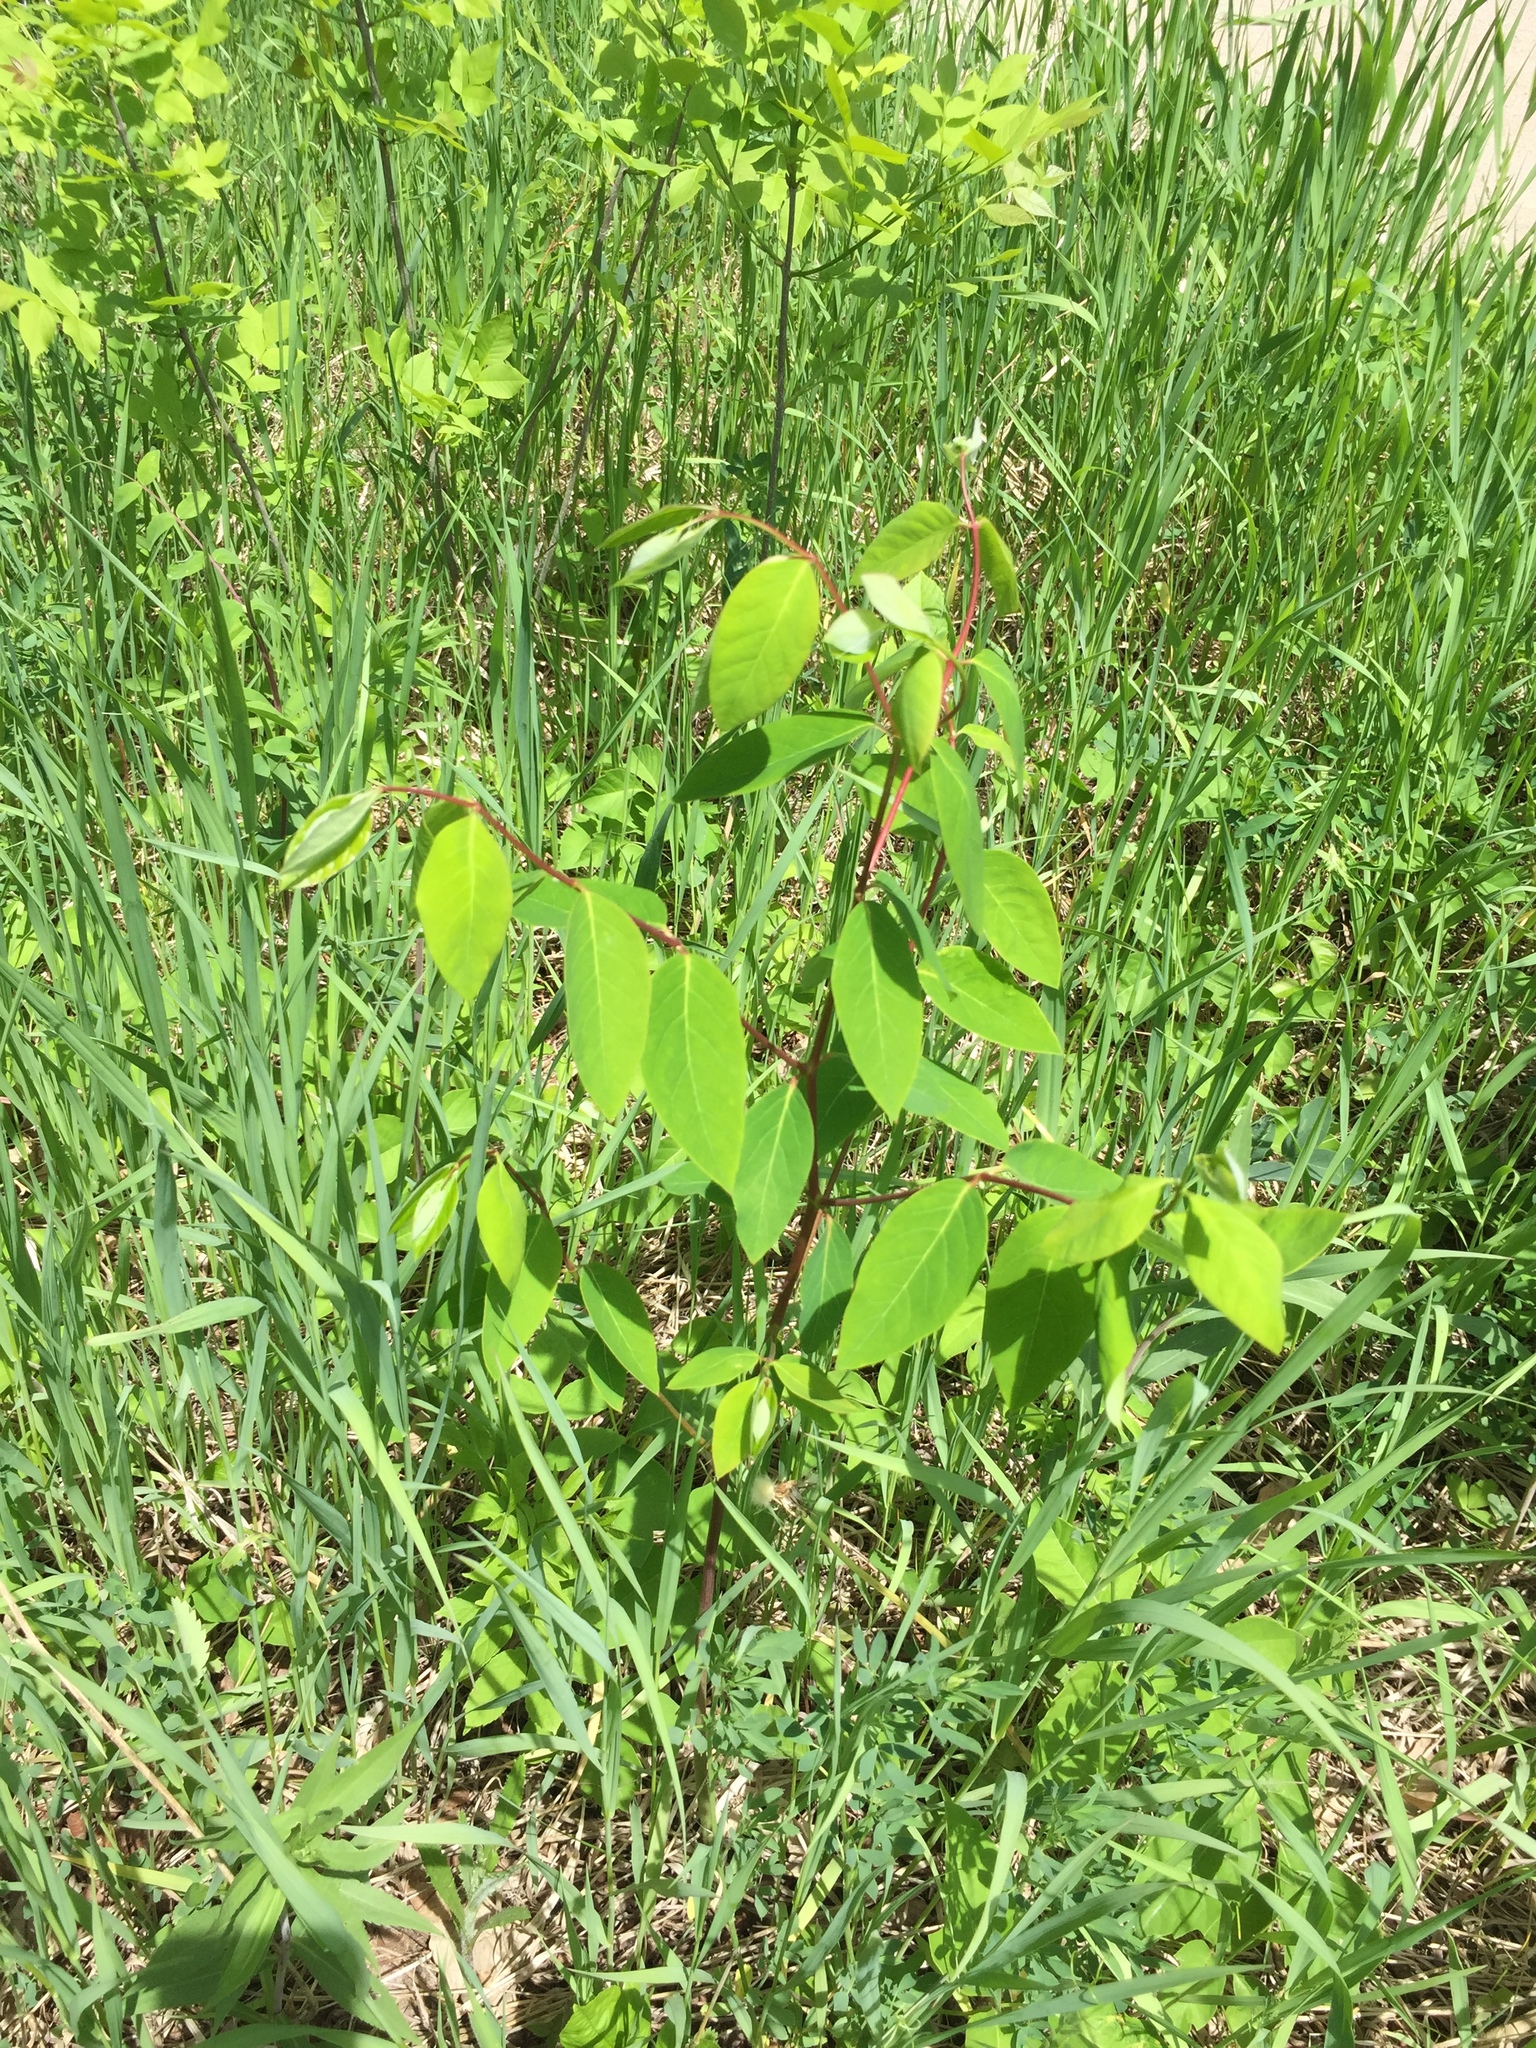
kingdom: Plantae
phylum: Tracheophyta
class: Magnoliopsida
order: Gentianales
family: Apocynaceae
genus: Apocynum
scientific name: Apocynum androsaemifolium
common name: Spreading dogbane
